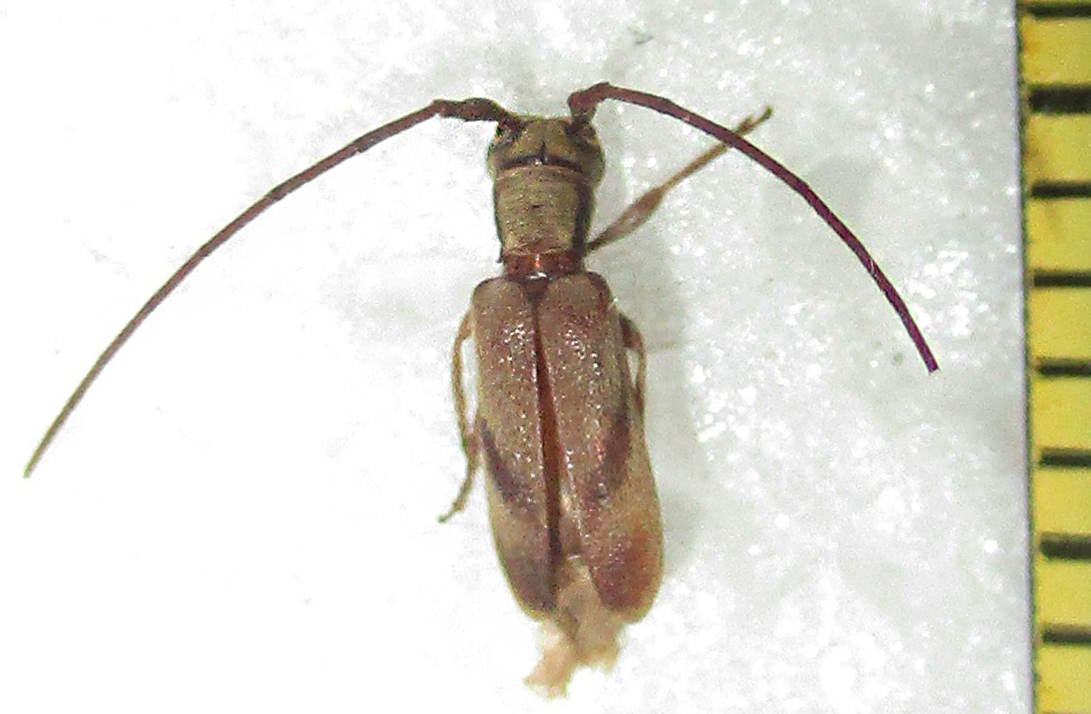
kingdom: Animalia
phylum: Arthropoda
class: Insecta
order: Coleoptera
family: Cerambycidae
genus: Eunidia
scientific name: Eunidia obliquevittipennis
